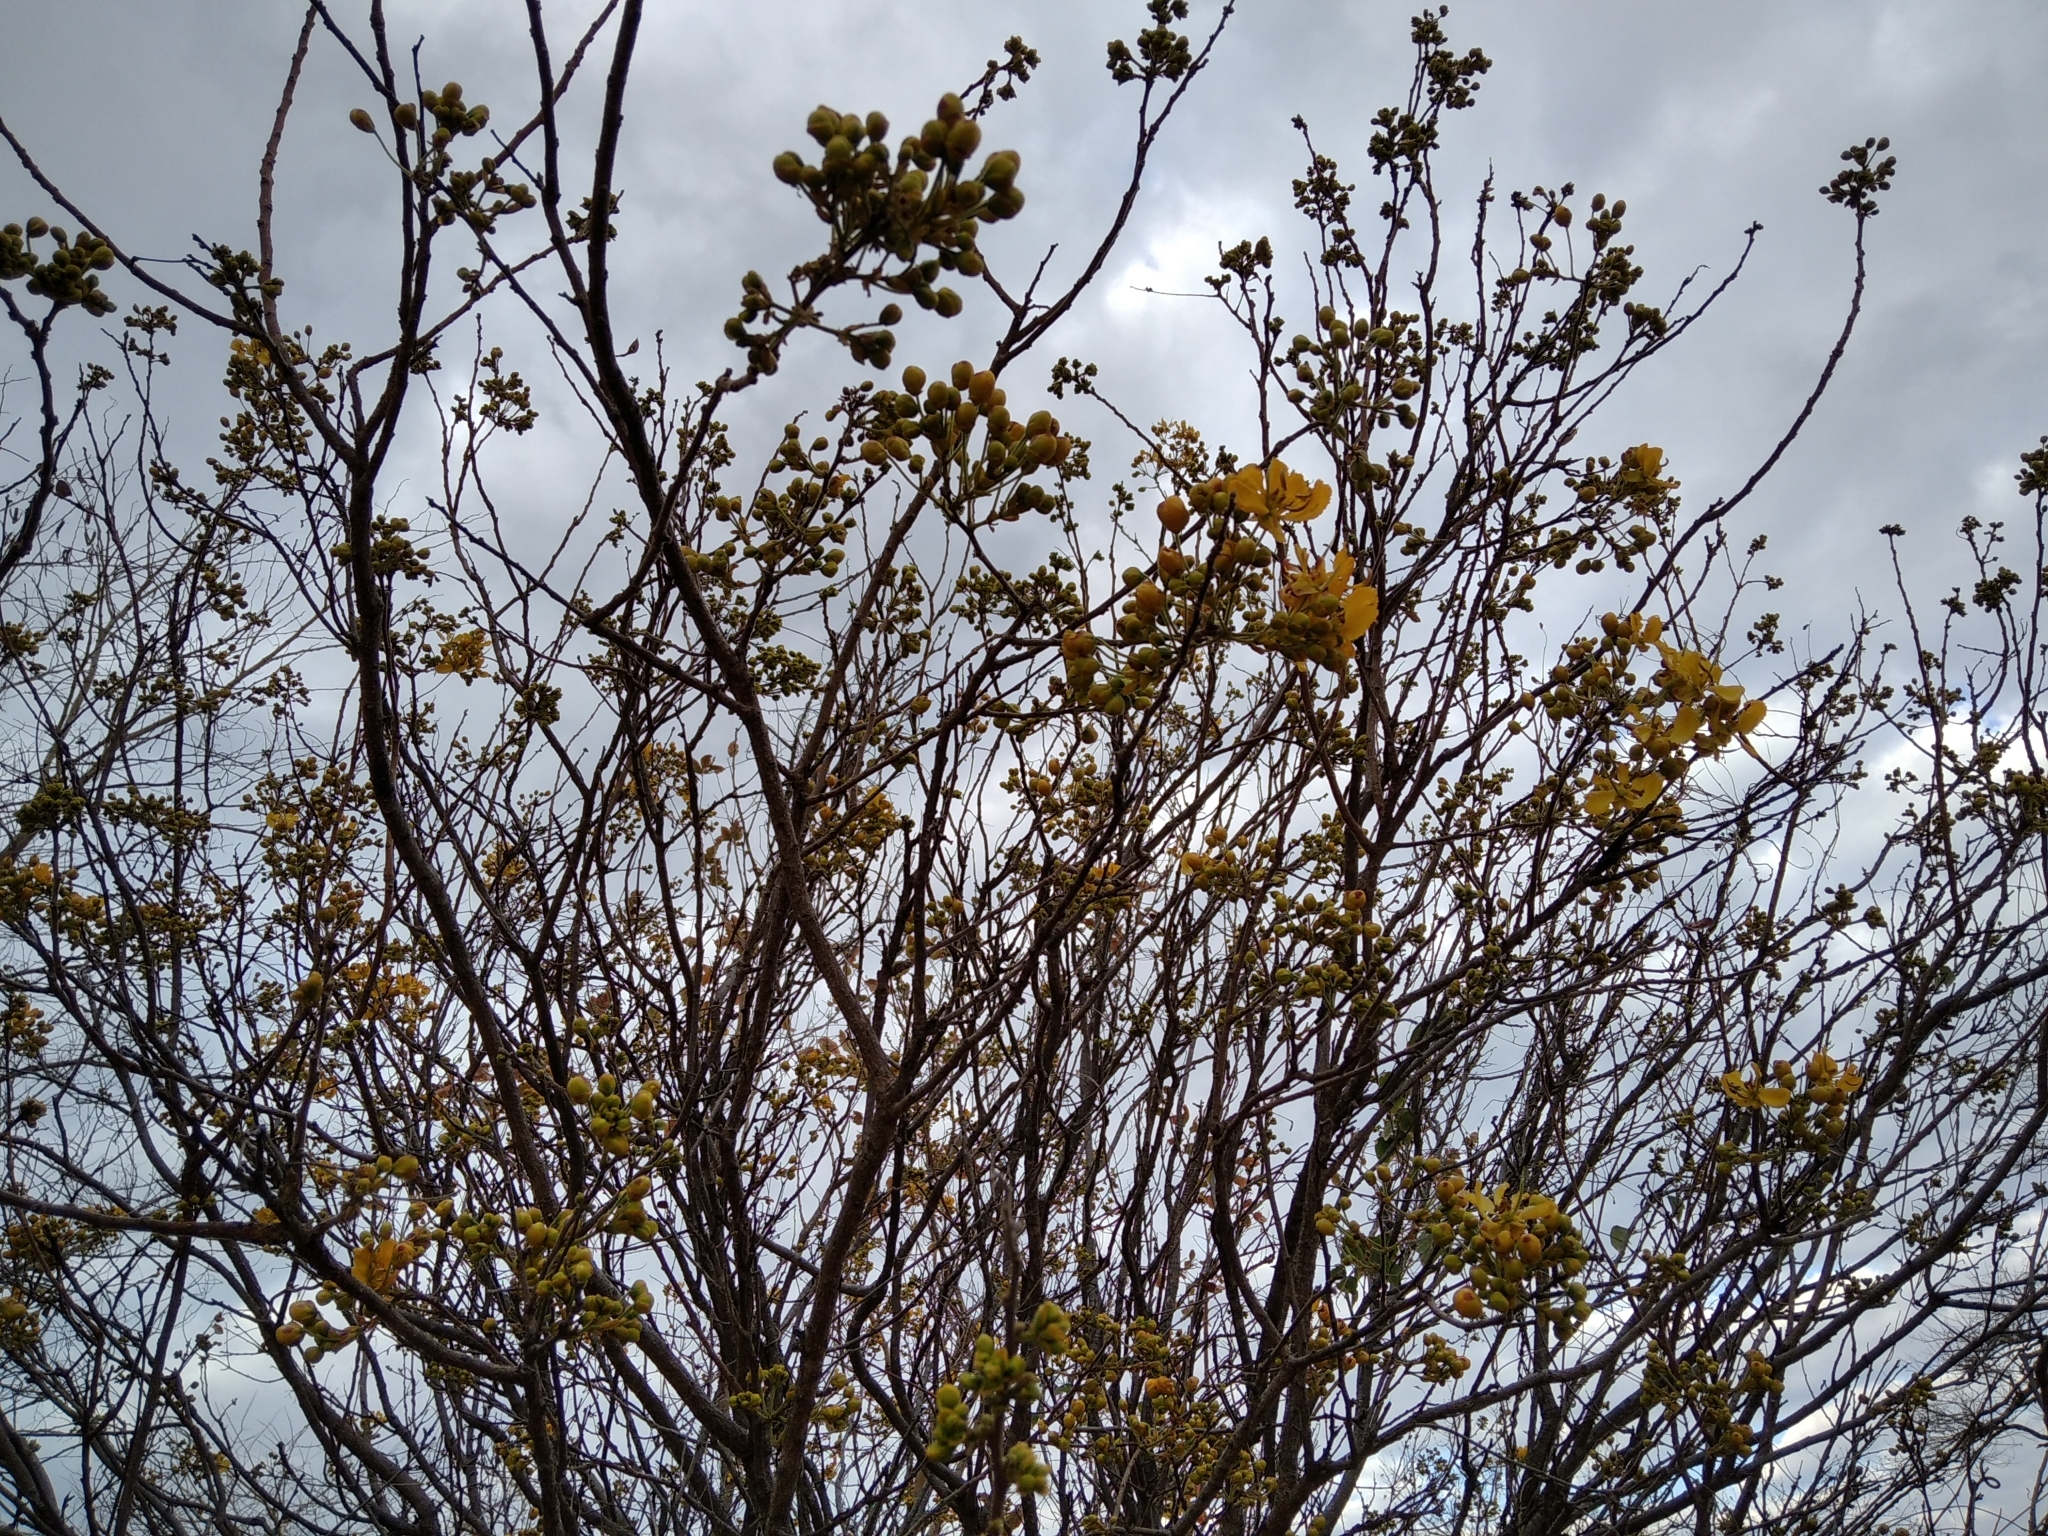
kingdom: Plantae
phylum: Tracheophyta
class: Magnoliopsida
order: Fabales
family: Fabaceae
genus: Senna
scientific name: Senna singueana
